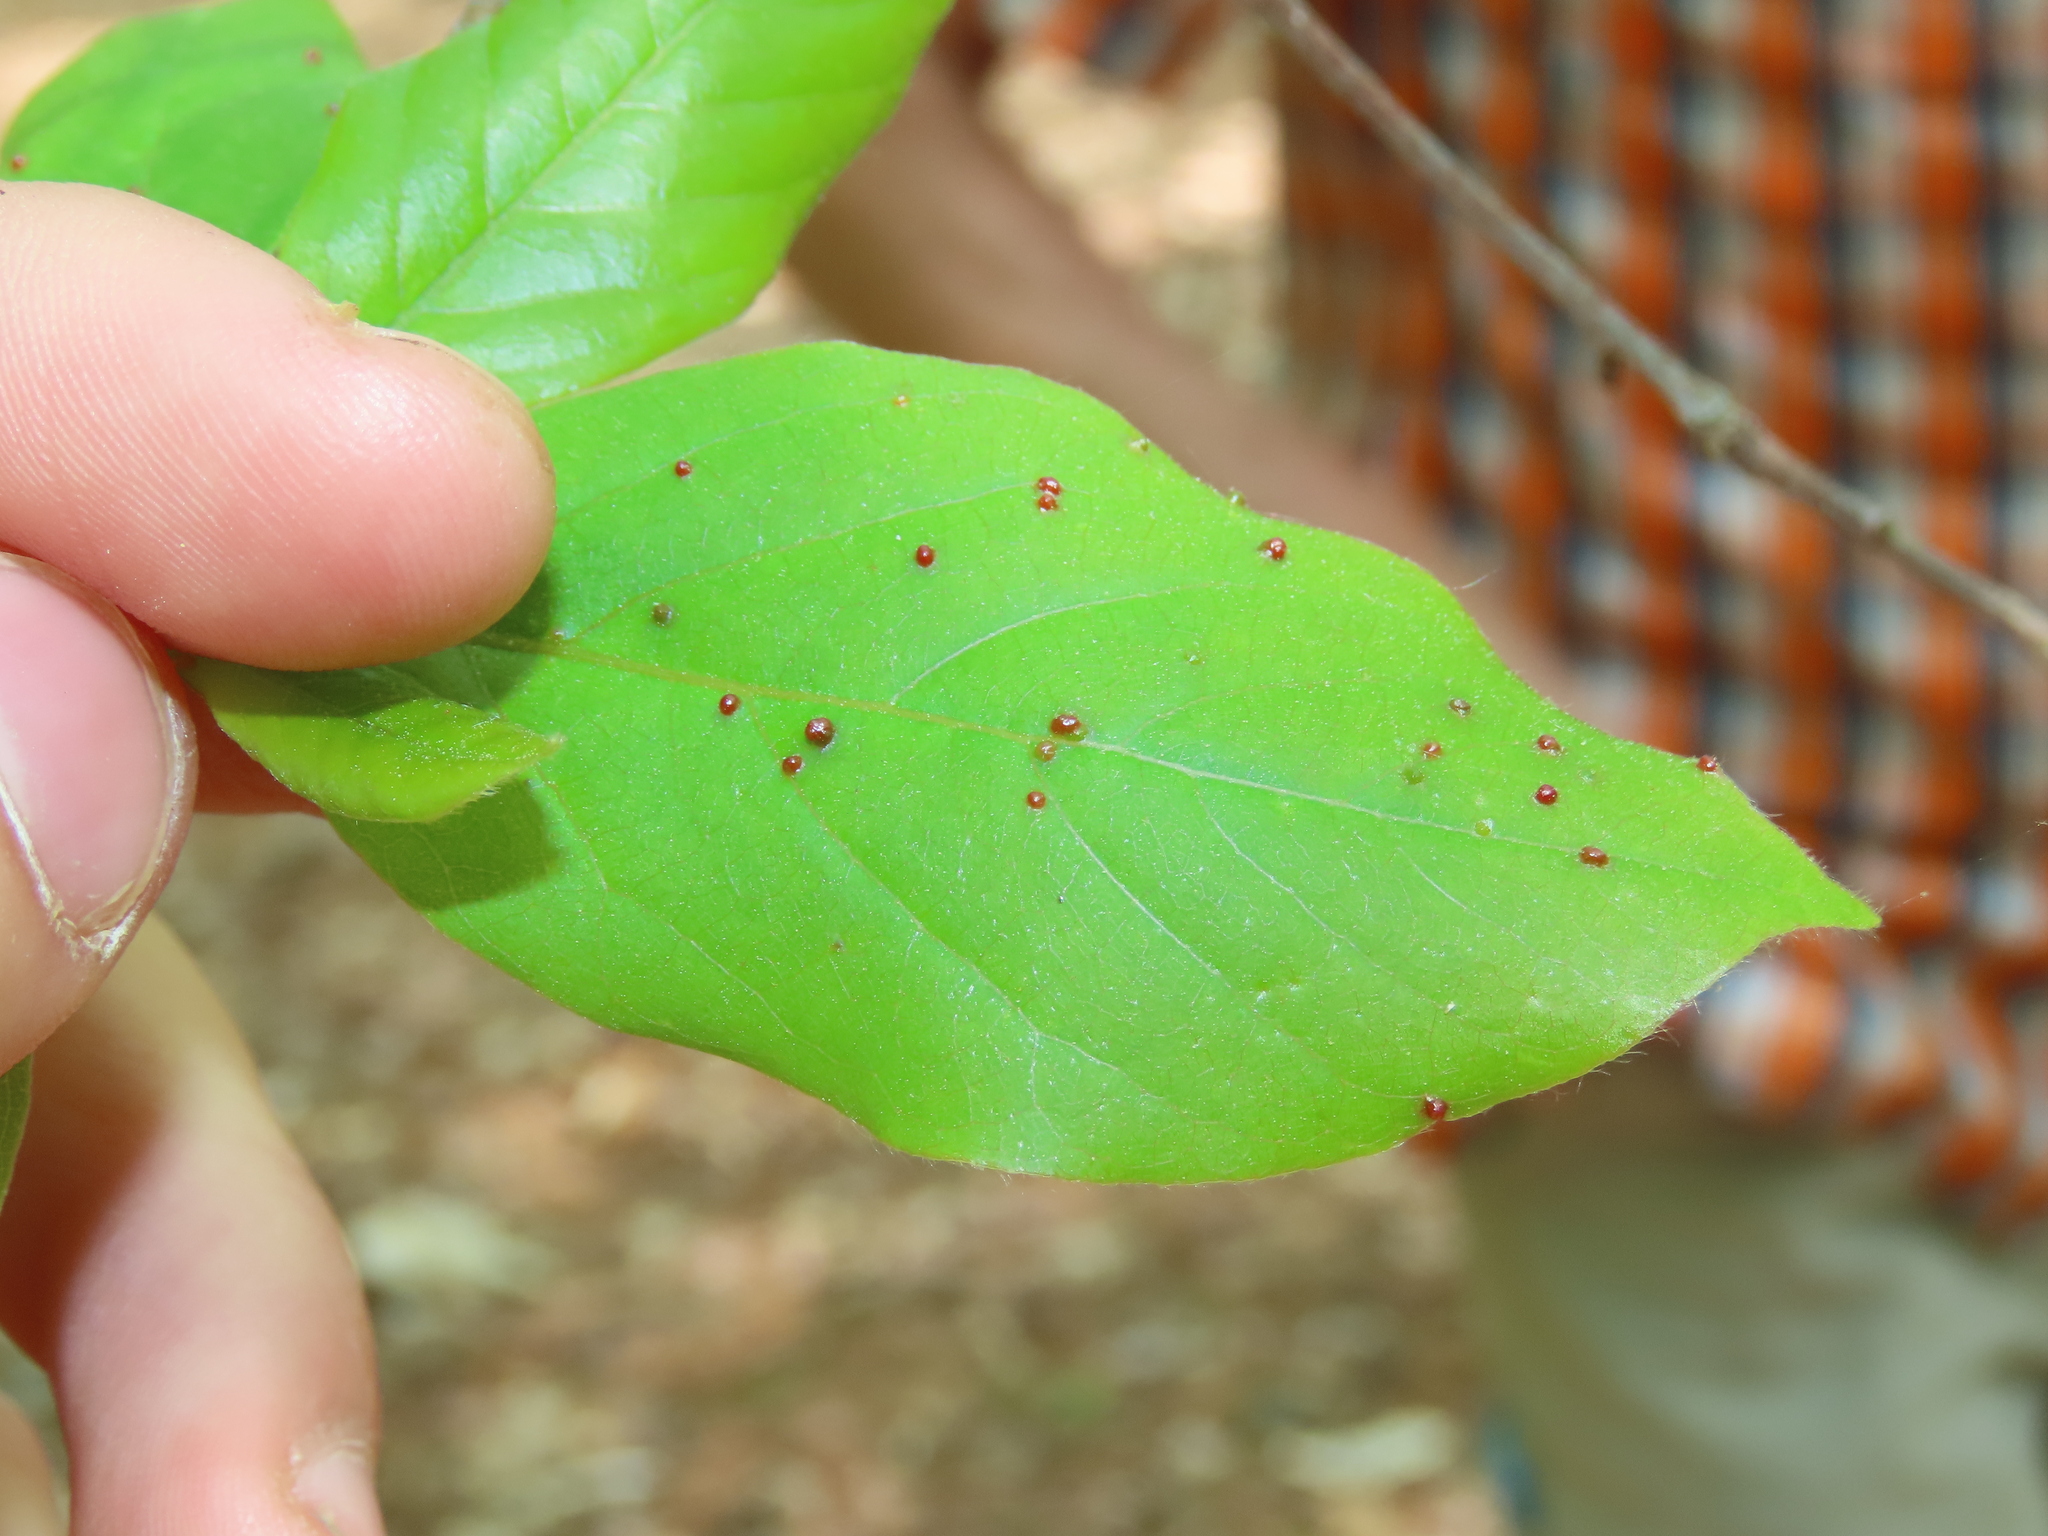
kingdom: Animalia
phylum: Arthropoda
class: Arachnida
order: Trombidiformes
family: Eriophyidae
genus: Aceria
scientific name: Aceria
